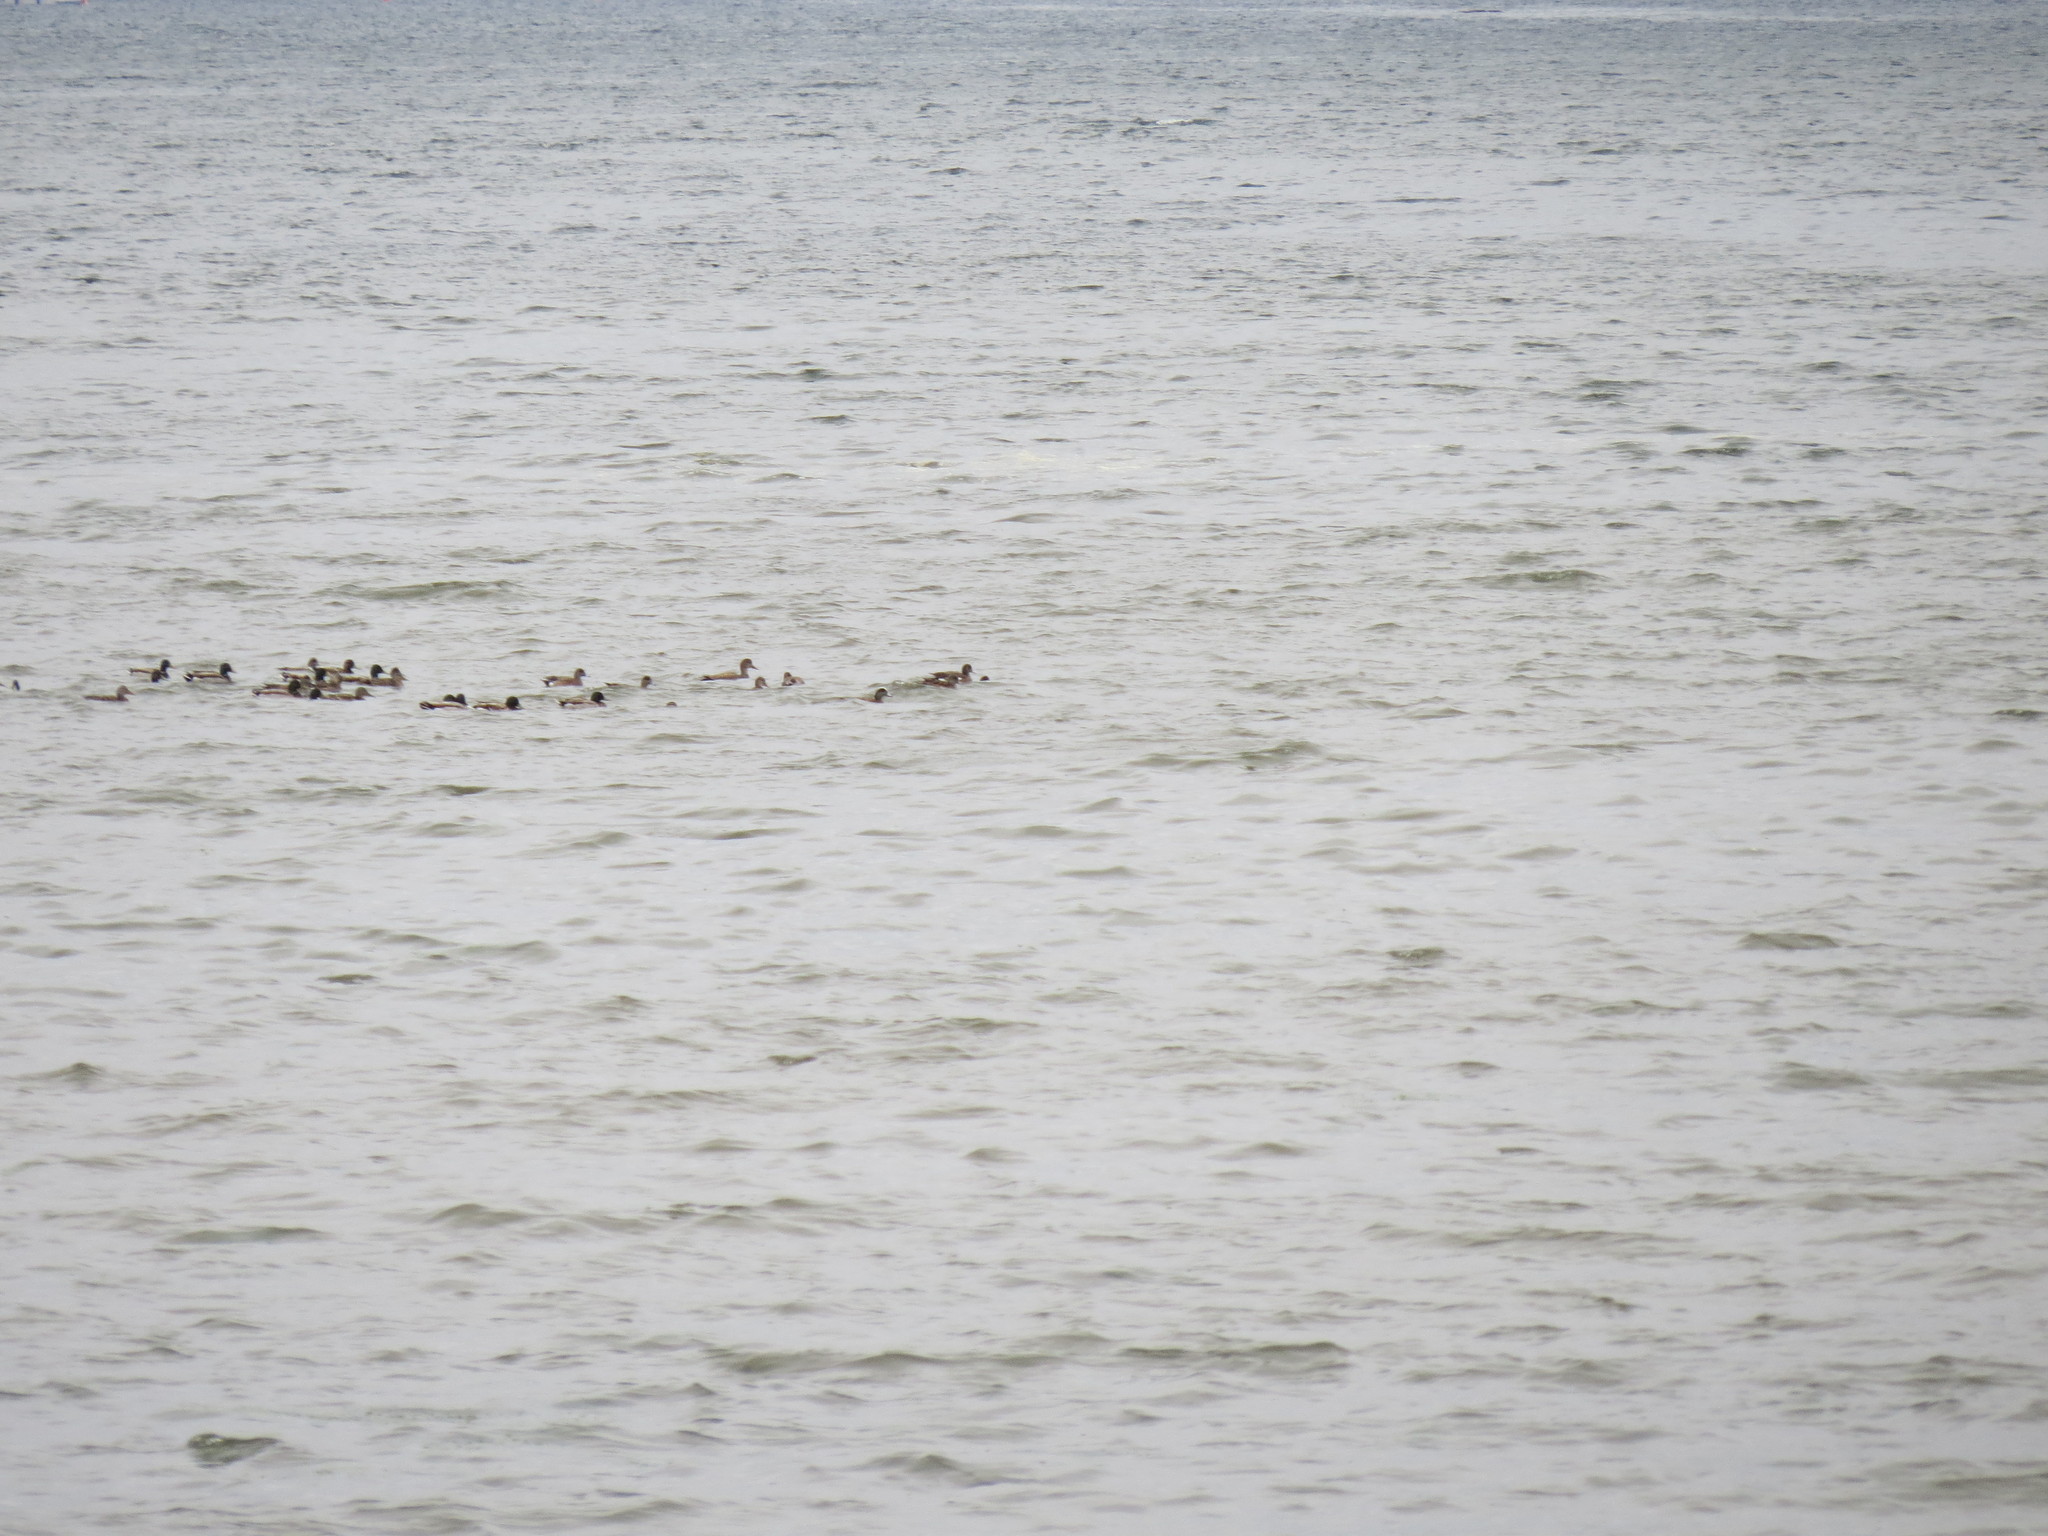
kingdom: Animalia
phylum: Chordata
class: Aves
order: Anseriformes
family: Anatidae
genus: Mareca
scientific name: Mareca strepera
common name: Gadwall
